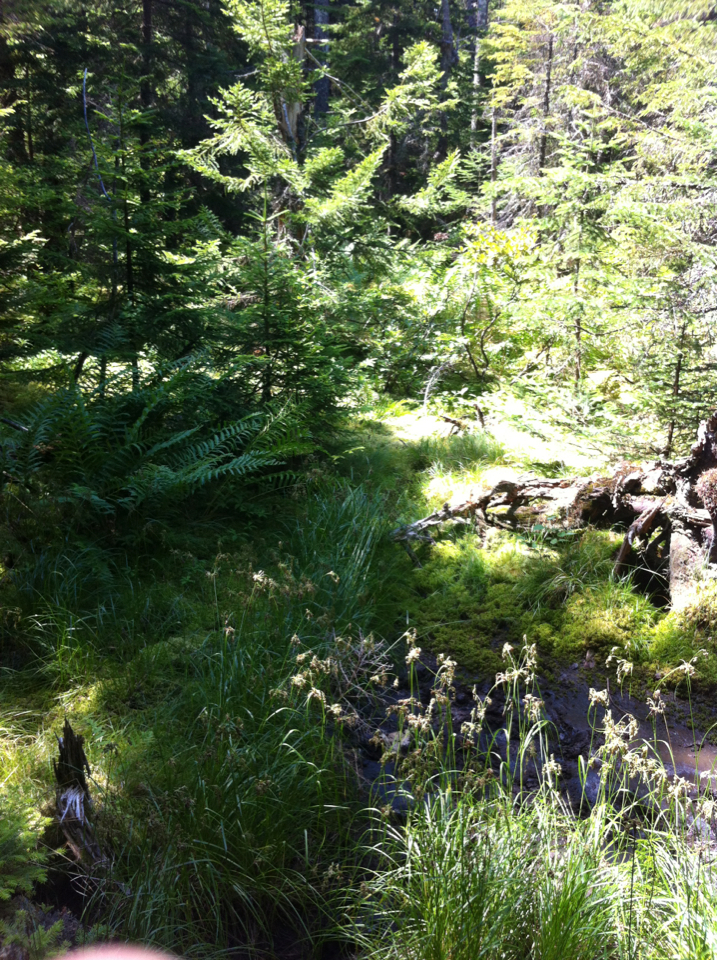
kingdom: Plantae
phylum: Tracheophyta
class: Polypodiopsida
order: Osmundales
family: Osmundaceae
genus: Osmundastrum
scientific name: Osmundastrum cinnamomeum
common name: Cinnamon fern
